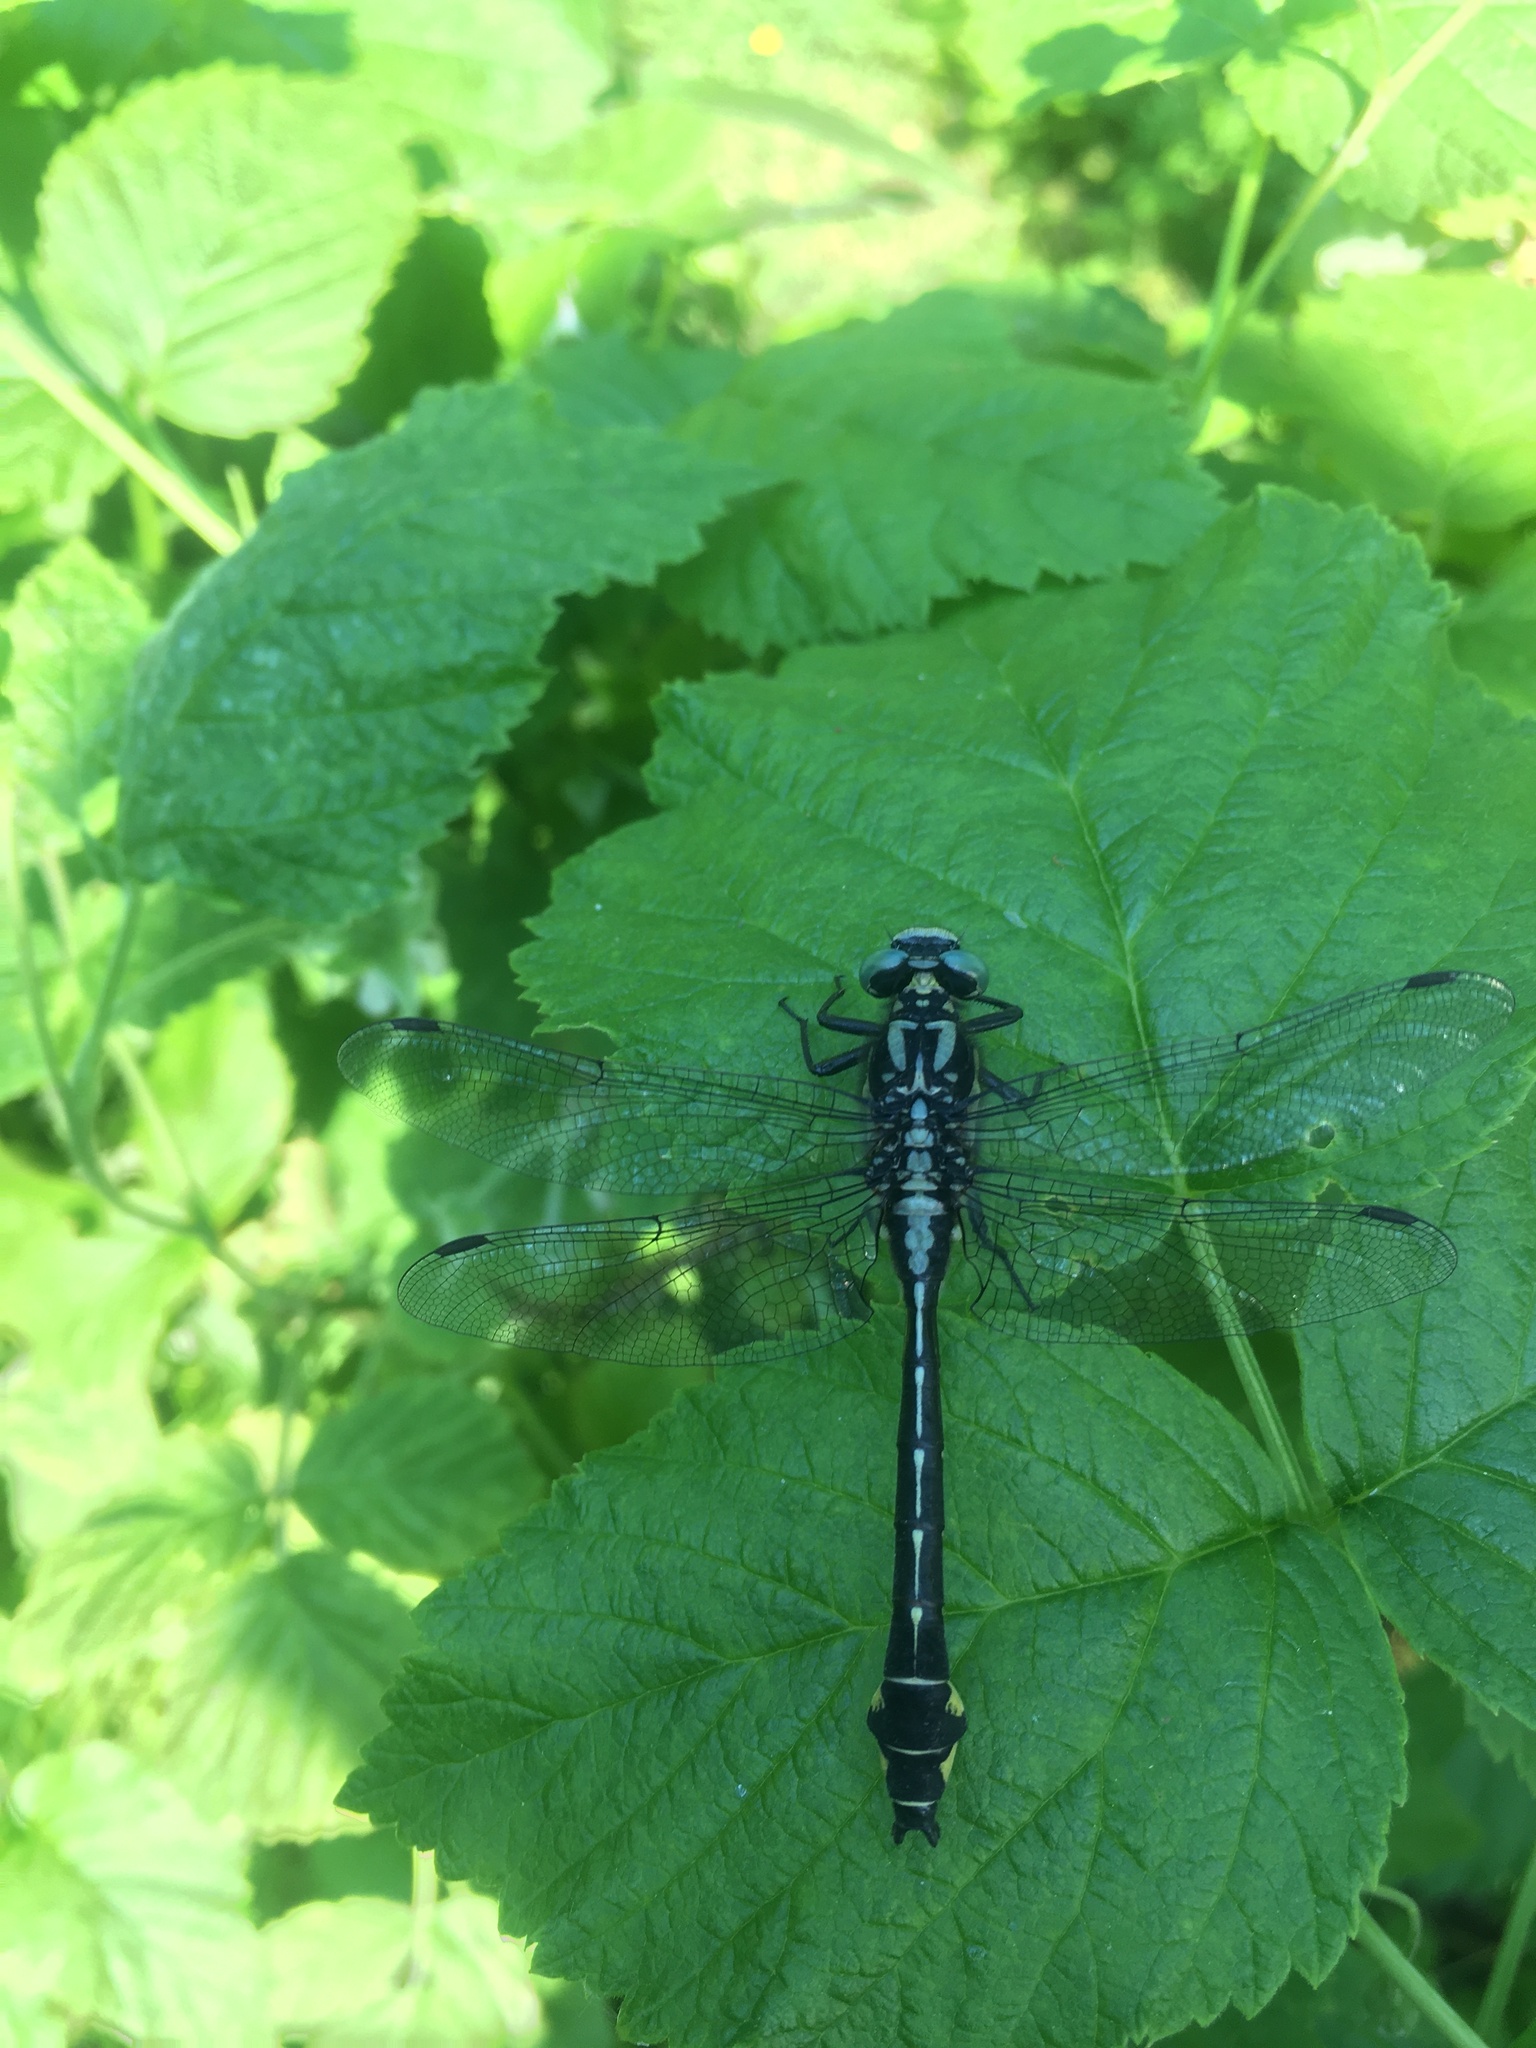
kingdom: Animalia
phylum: Arthropoda
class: Insecta
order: Odonata
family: Gomphidae
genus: Gomphus
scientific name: Gomphus vulgatissimus
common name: Club-tailed dragonfly
